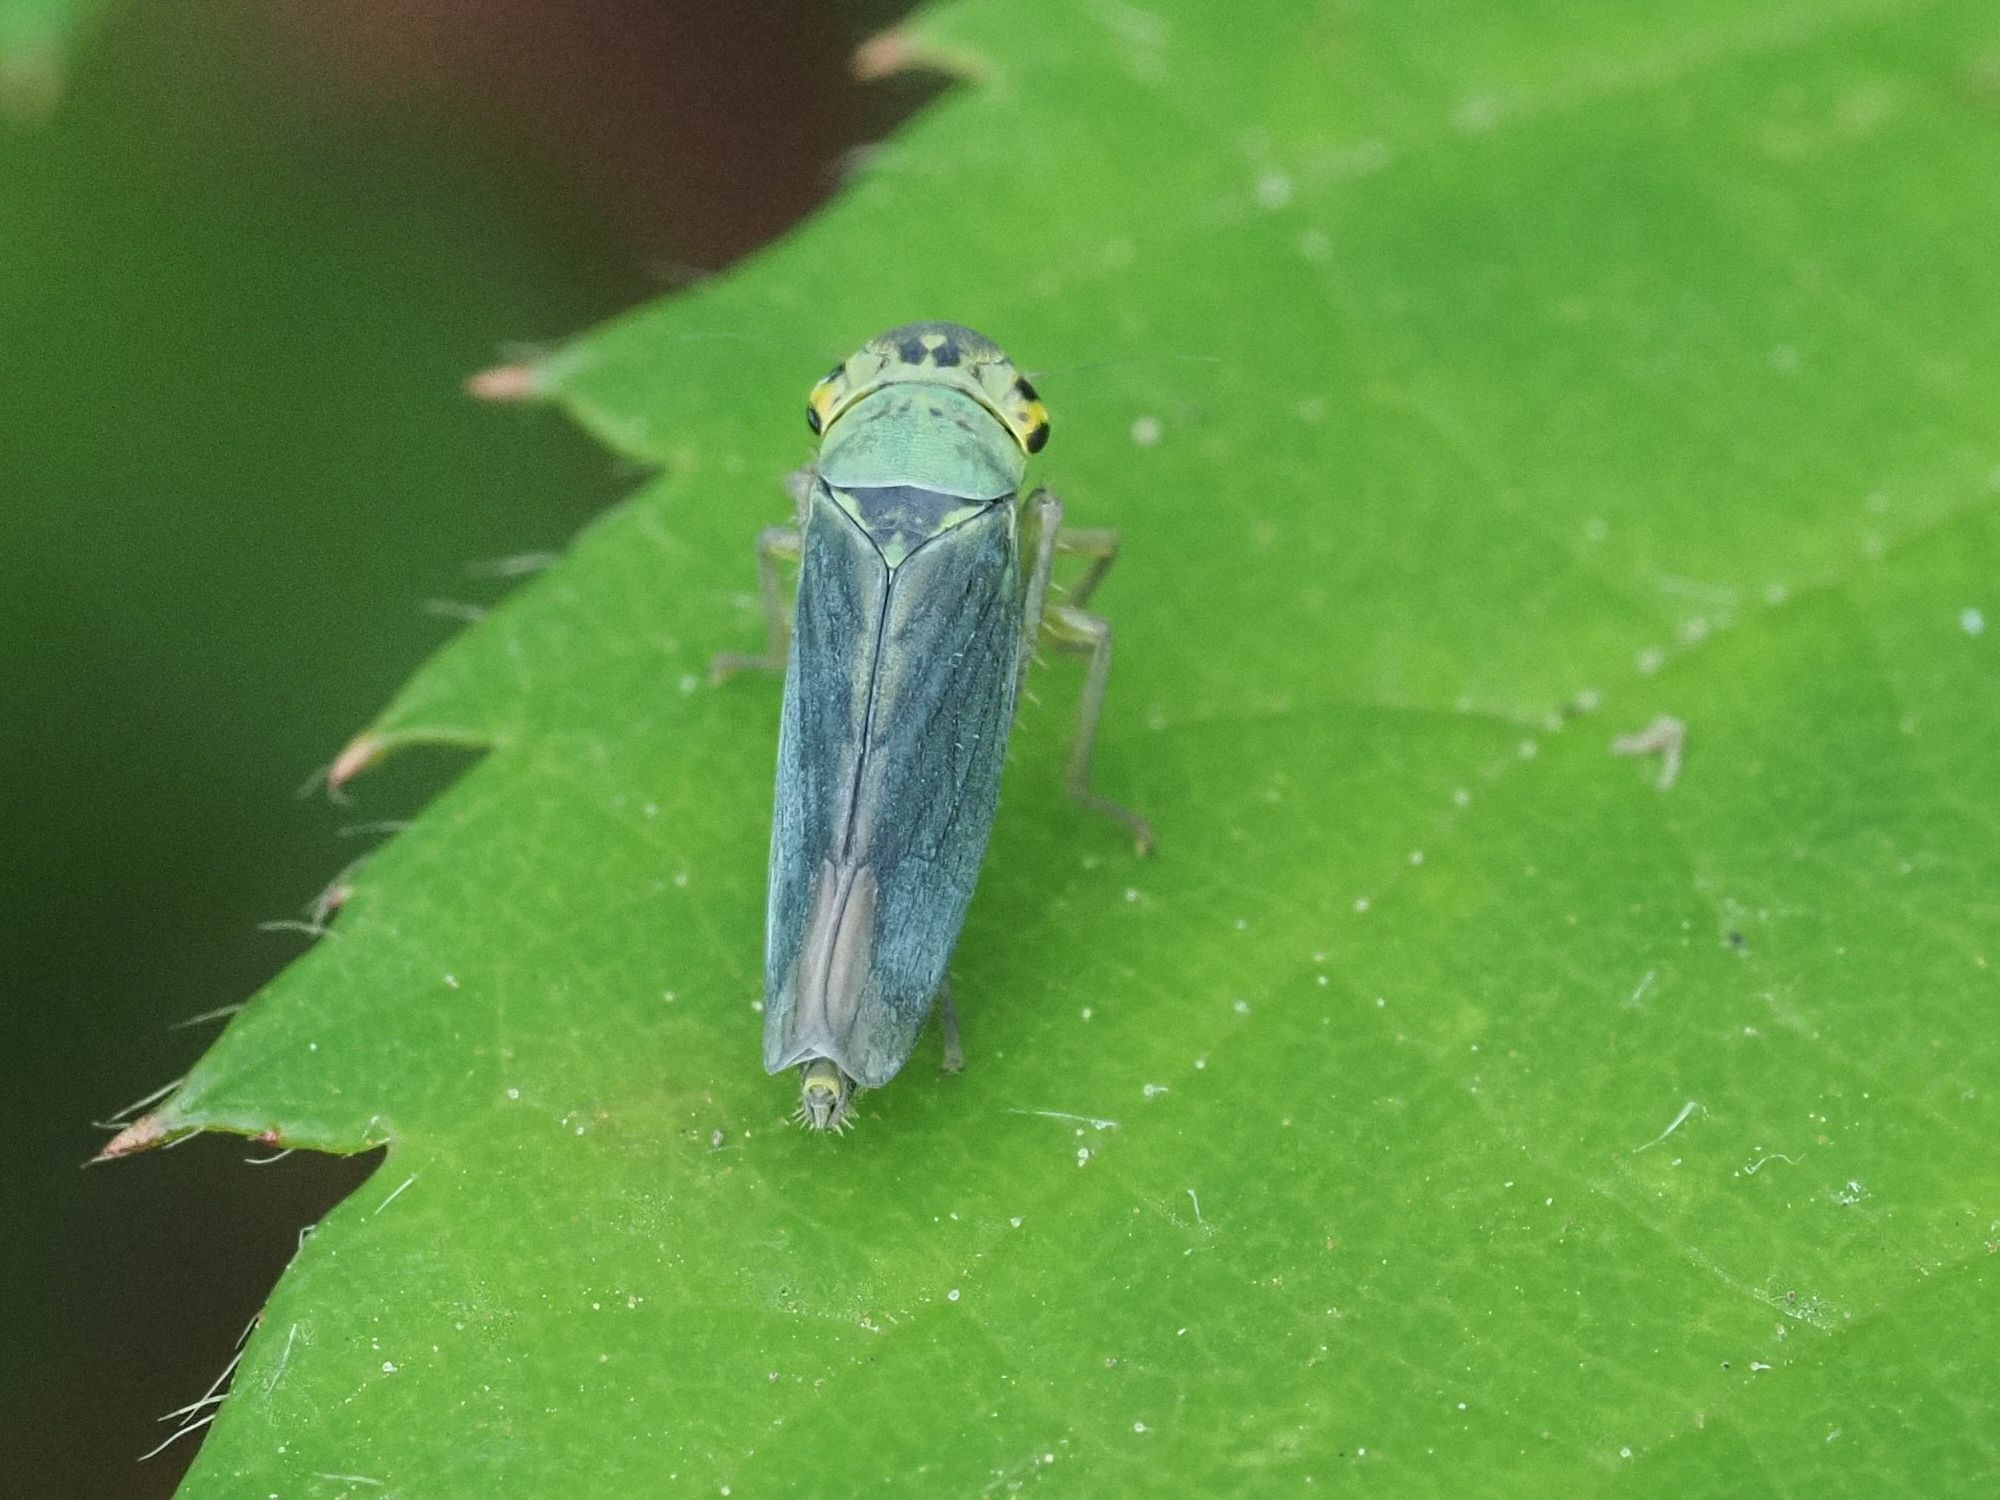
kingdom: Animalia
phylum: Arthropoda
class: Insecta
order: Hemiptera
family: Cicadellidae
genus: Cicadella
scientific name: Cicadella viridis
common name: Leafhopper
